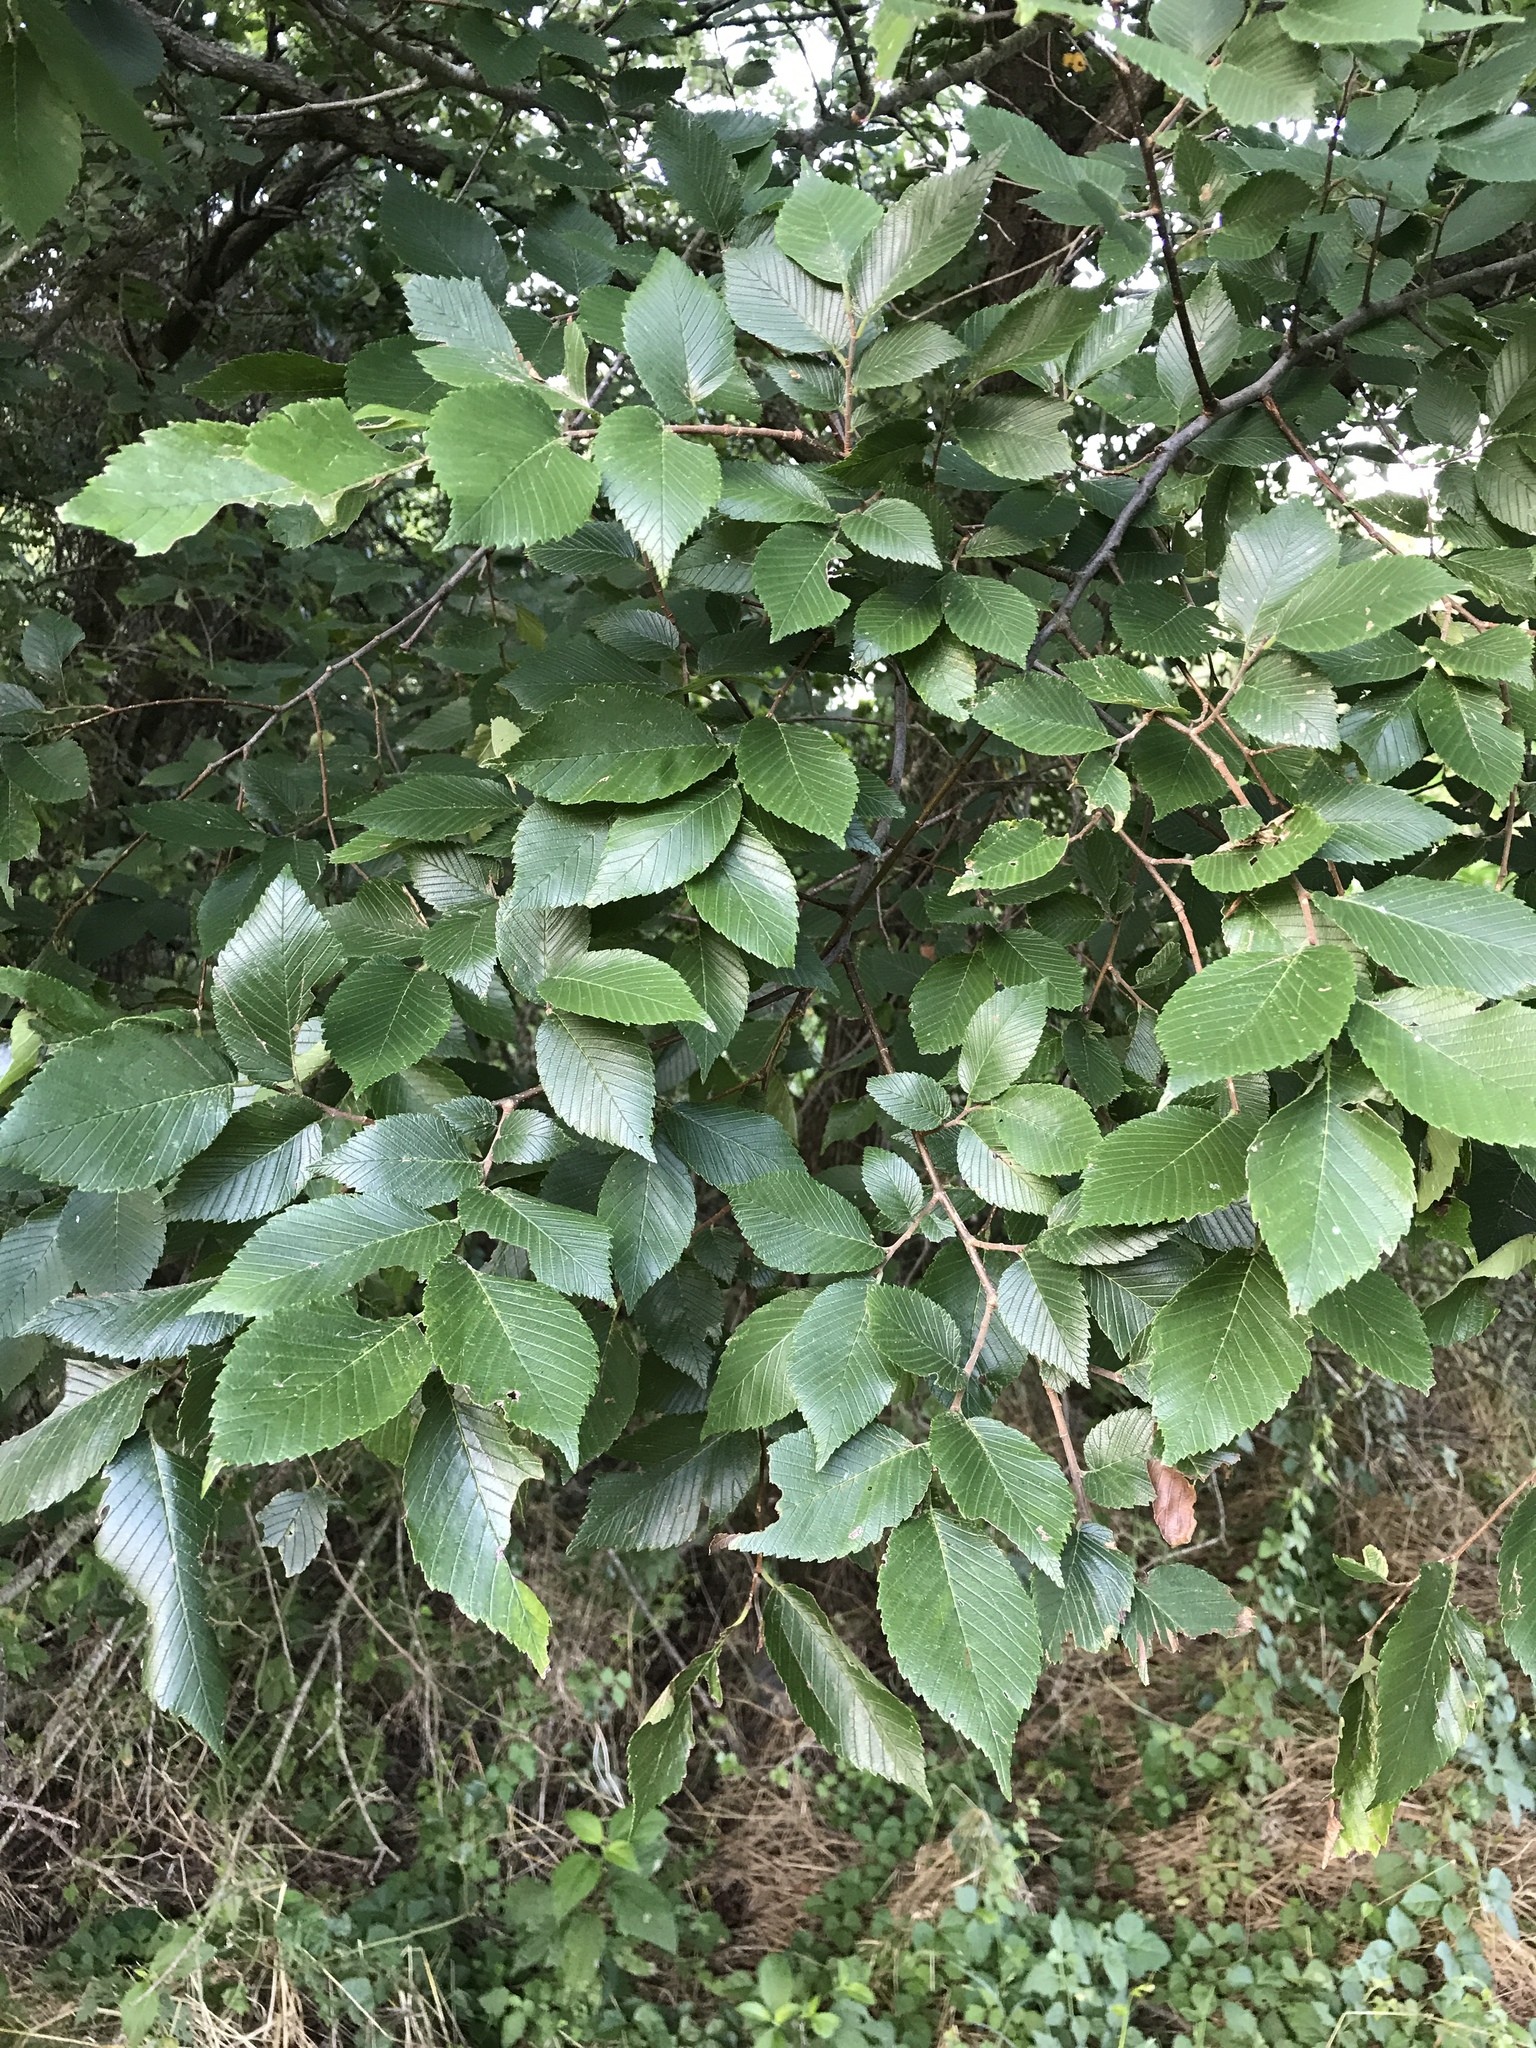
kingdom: Plantae
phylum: Tracheophyta
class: Magnoliopsida
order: Rosales
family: Ulmaceae
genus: Ulmus
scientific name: Ulmus americana
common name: American elm
